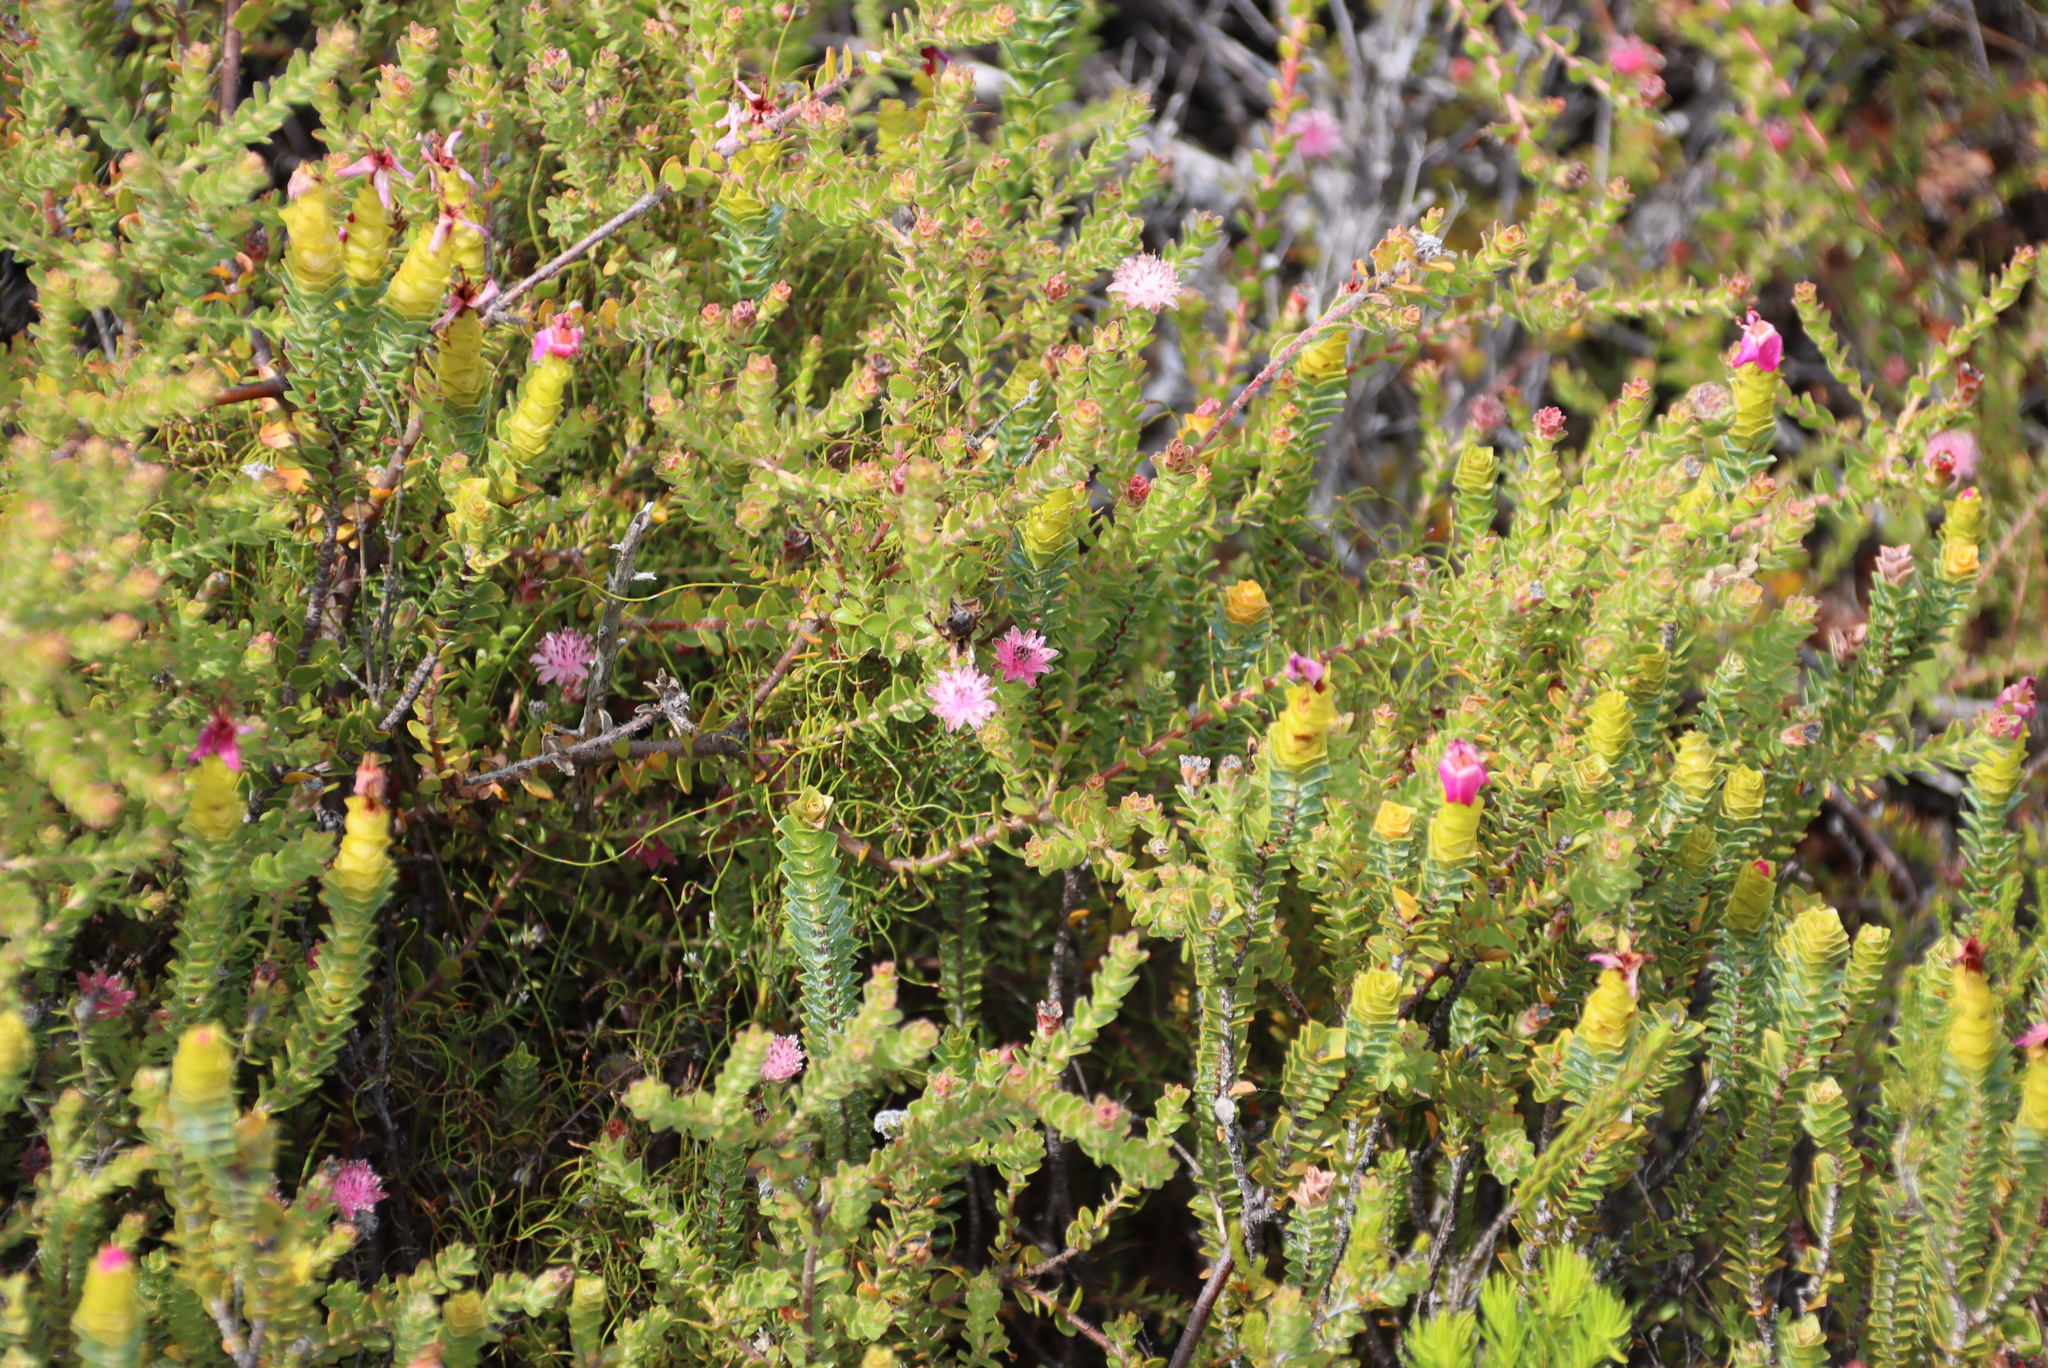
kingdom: Plantae
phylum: Tracheophyta
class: Magnoliopsida
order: Proteales
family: Proteaceae
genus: Diastella
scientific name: Diastella divaricata
